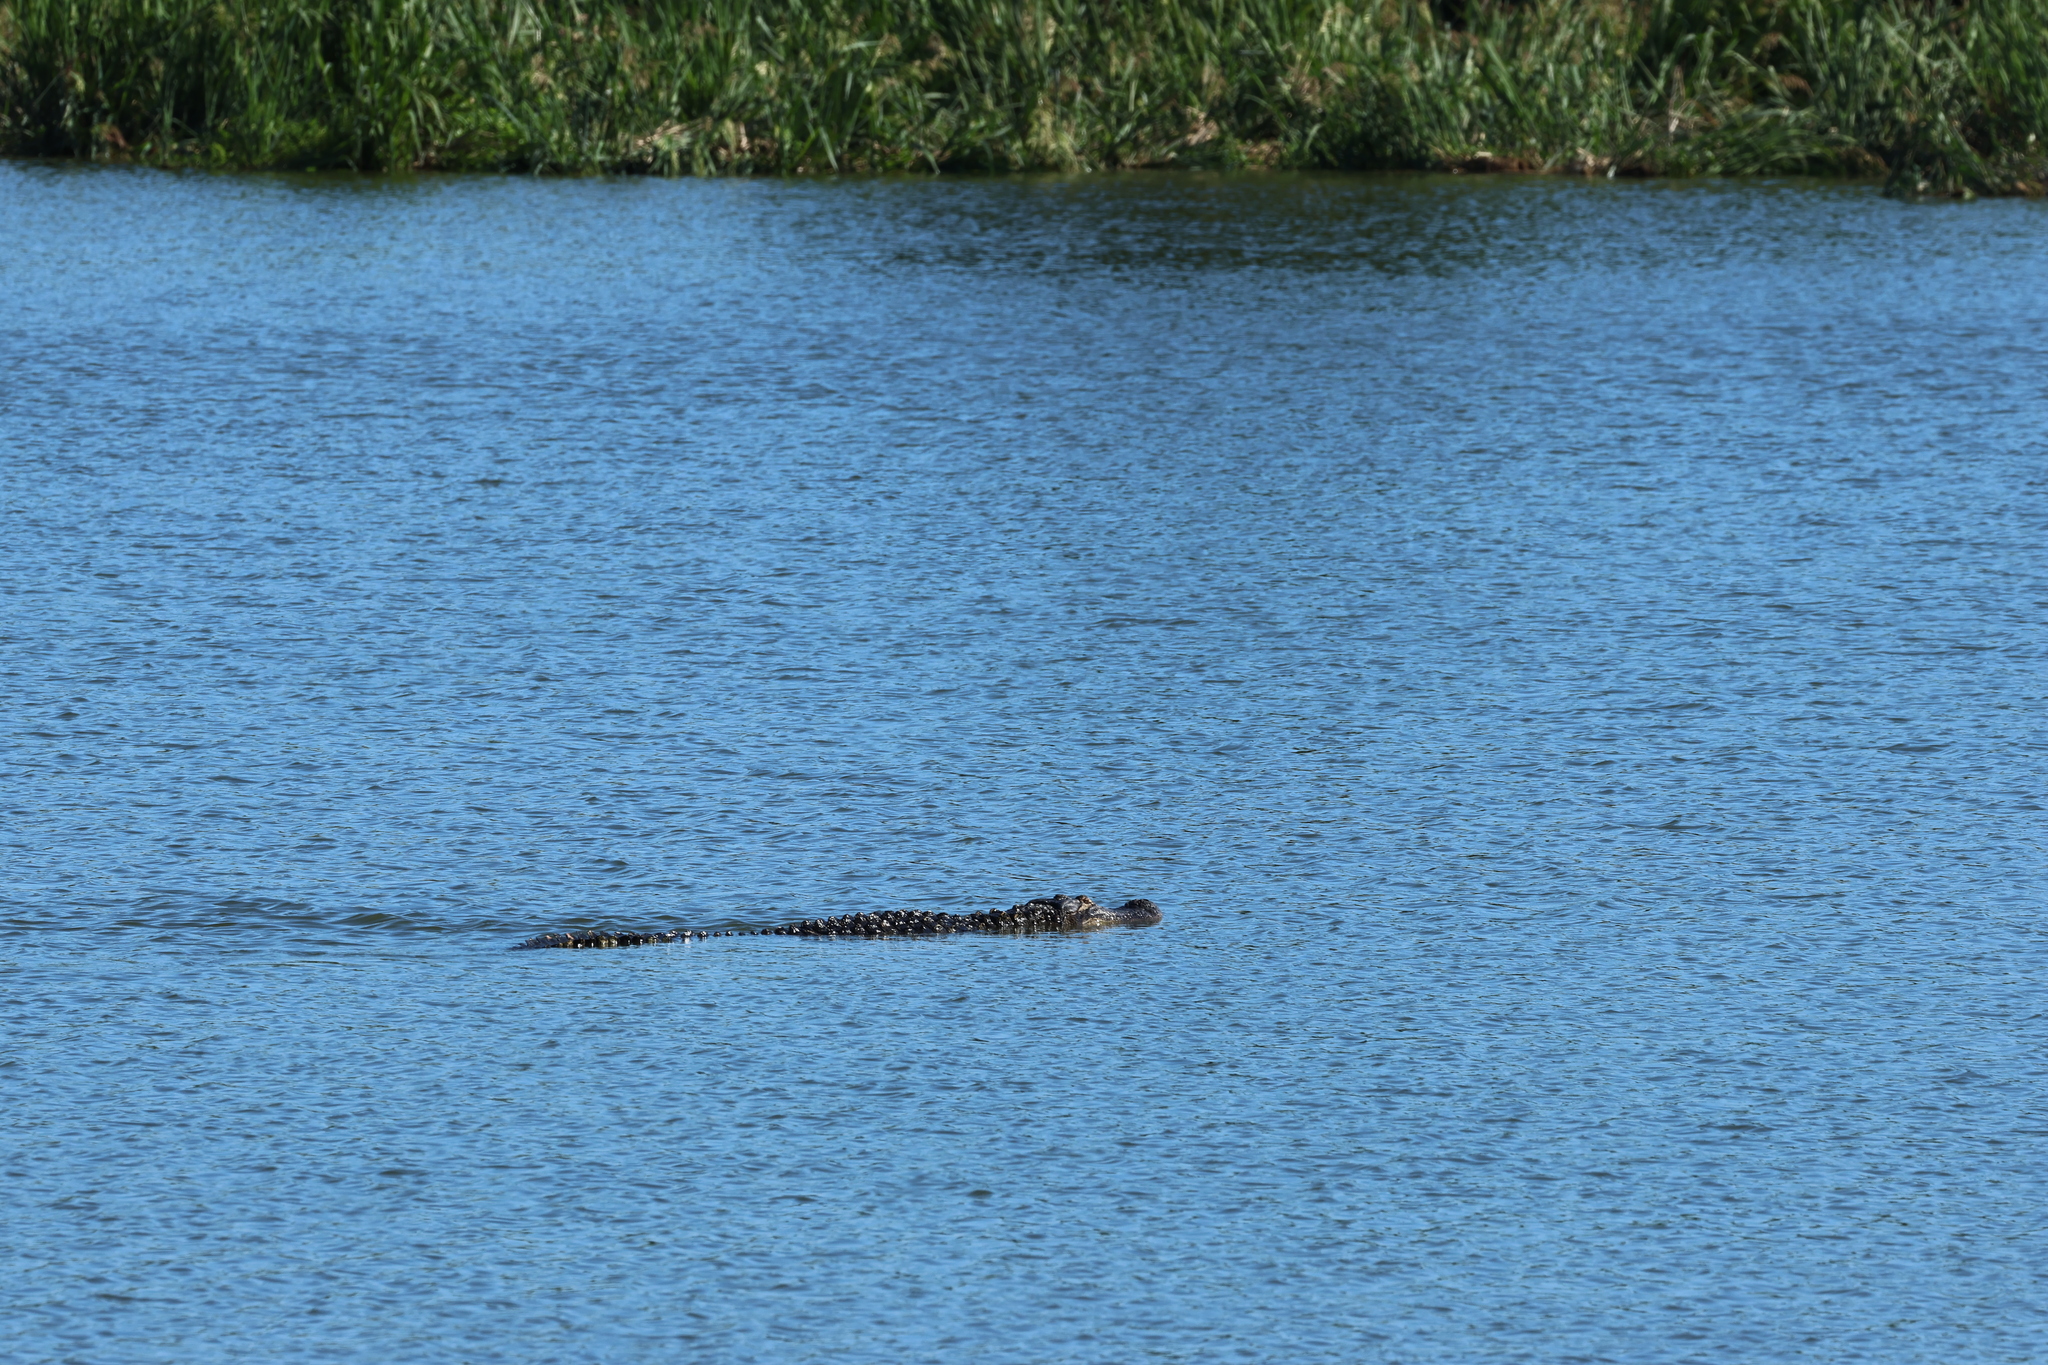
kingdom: Animalia
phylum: Chordata
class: Crocodylia
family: Alligatoridae
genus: Alligator
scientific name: Alligator mississippiensis
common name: American alligator
